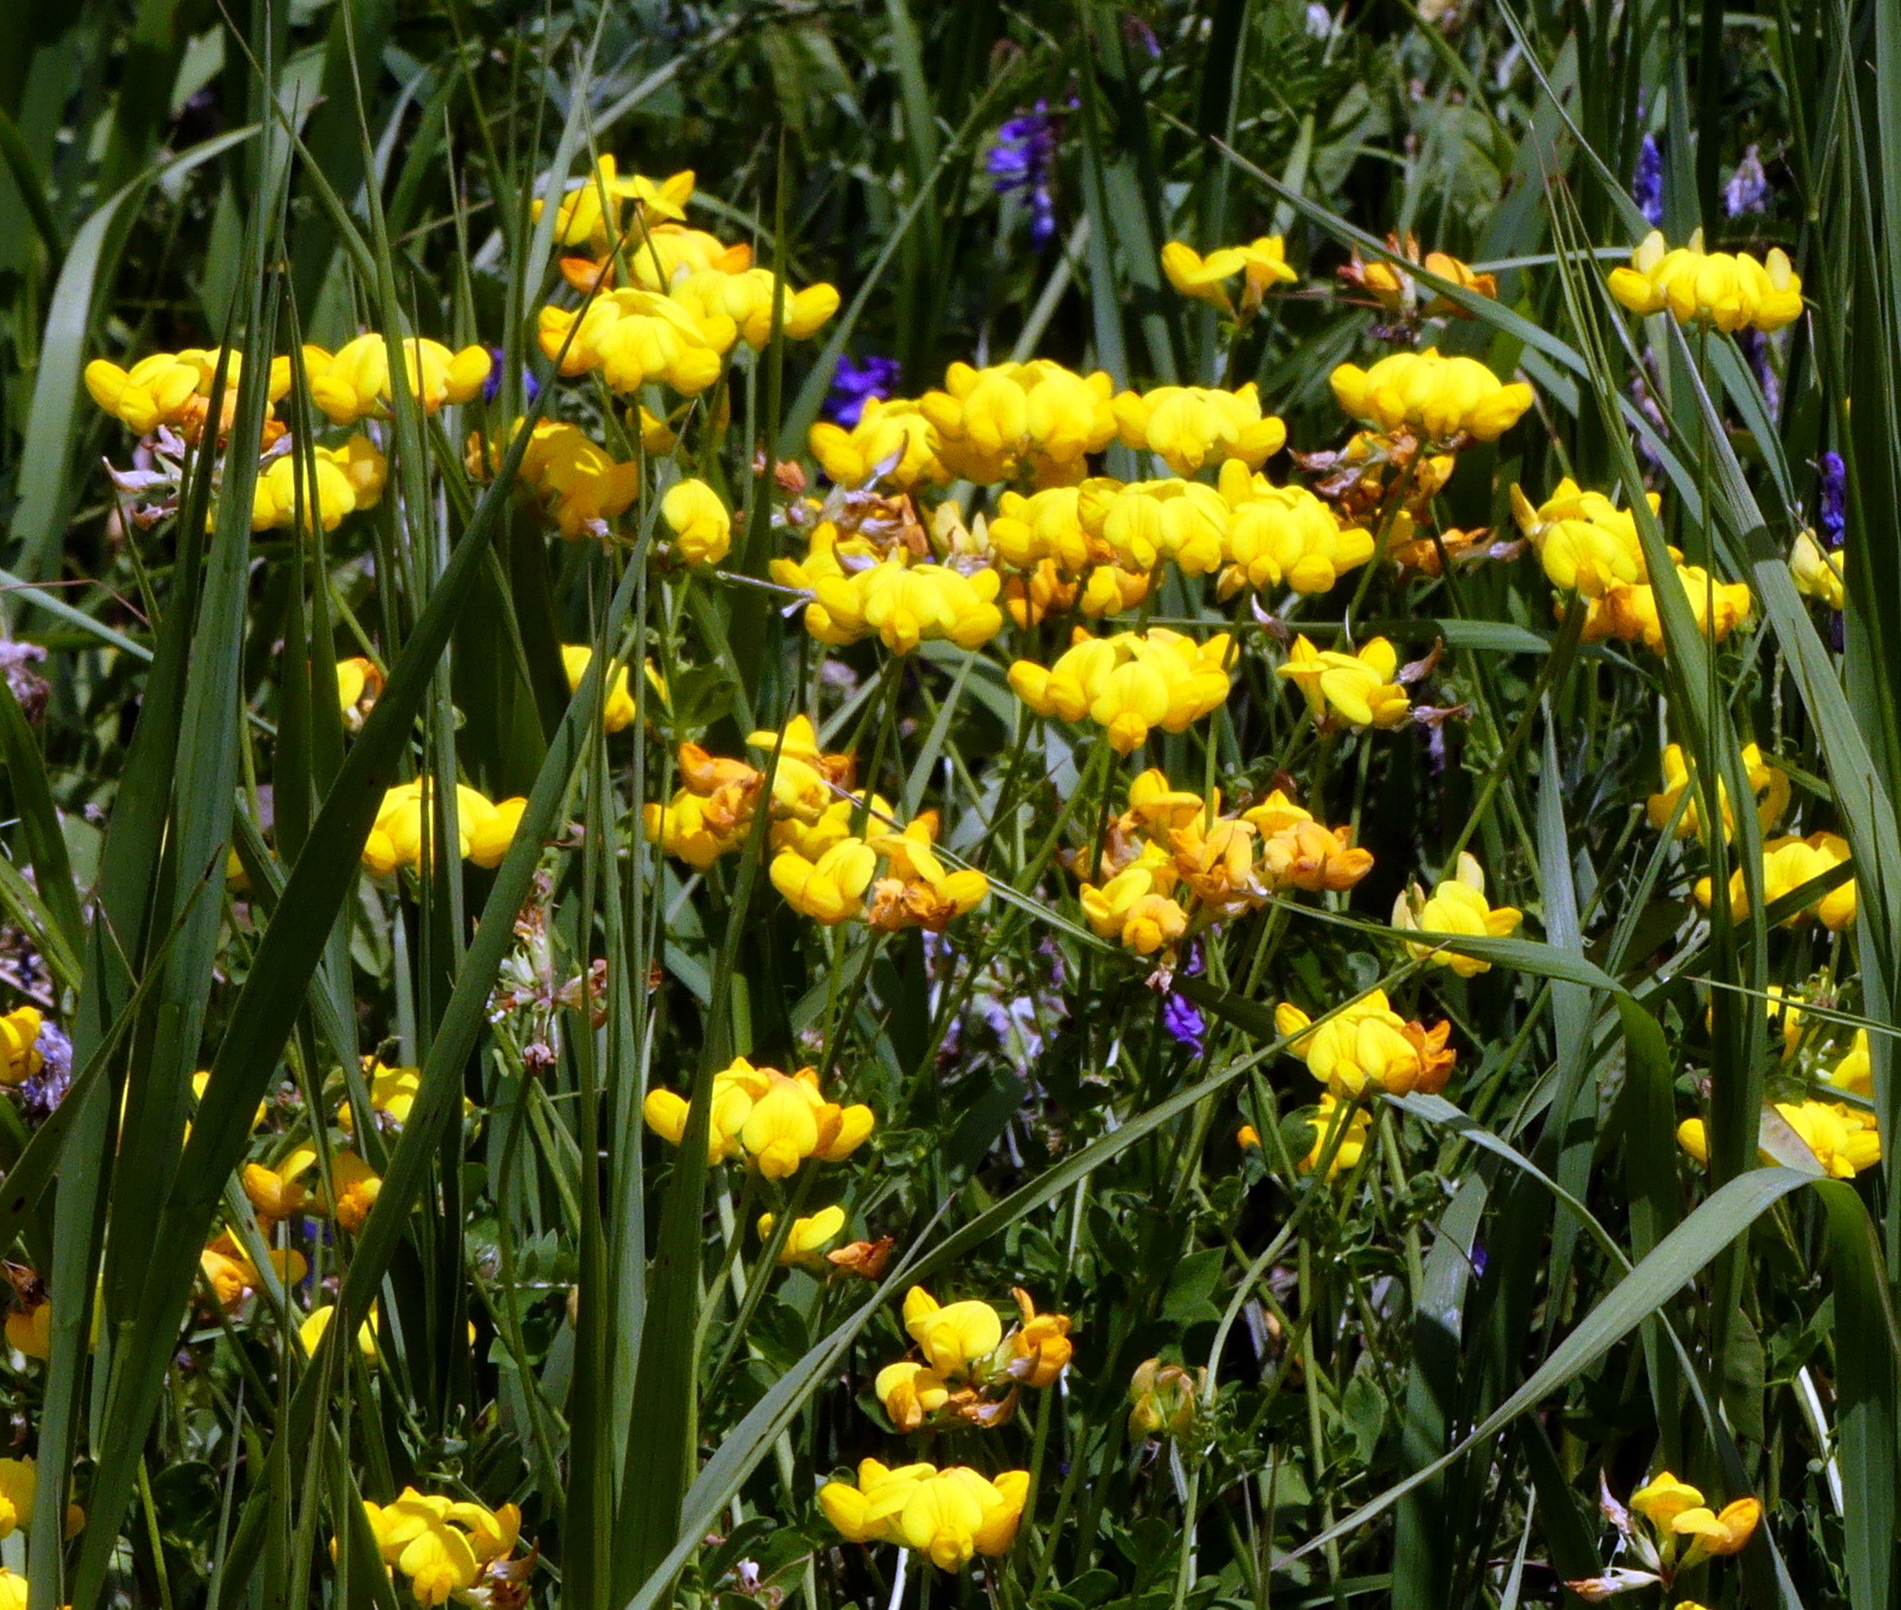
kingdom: Plantae
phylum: Tracheophyta
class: Magnoliopsida
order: Fabales
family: Fabaceae
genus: Lotus
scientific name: Lotus corniculatus
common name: Common bird's-foot-trefoil
